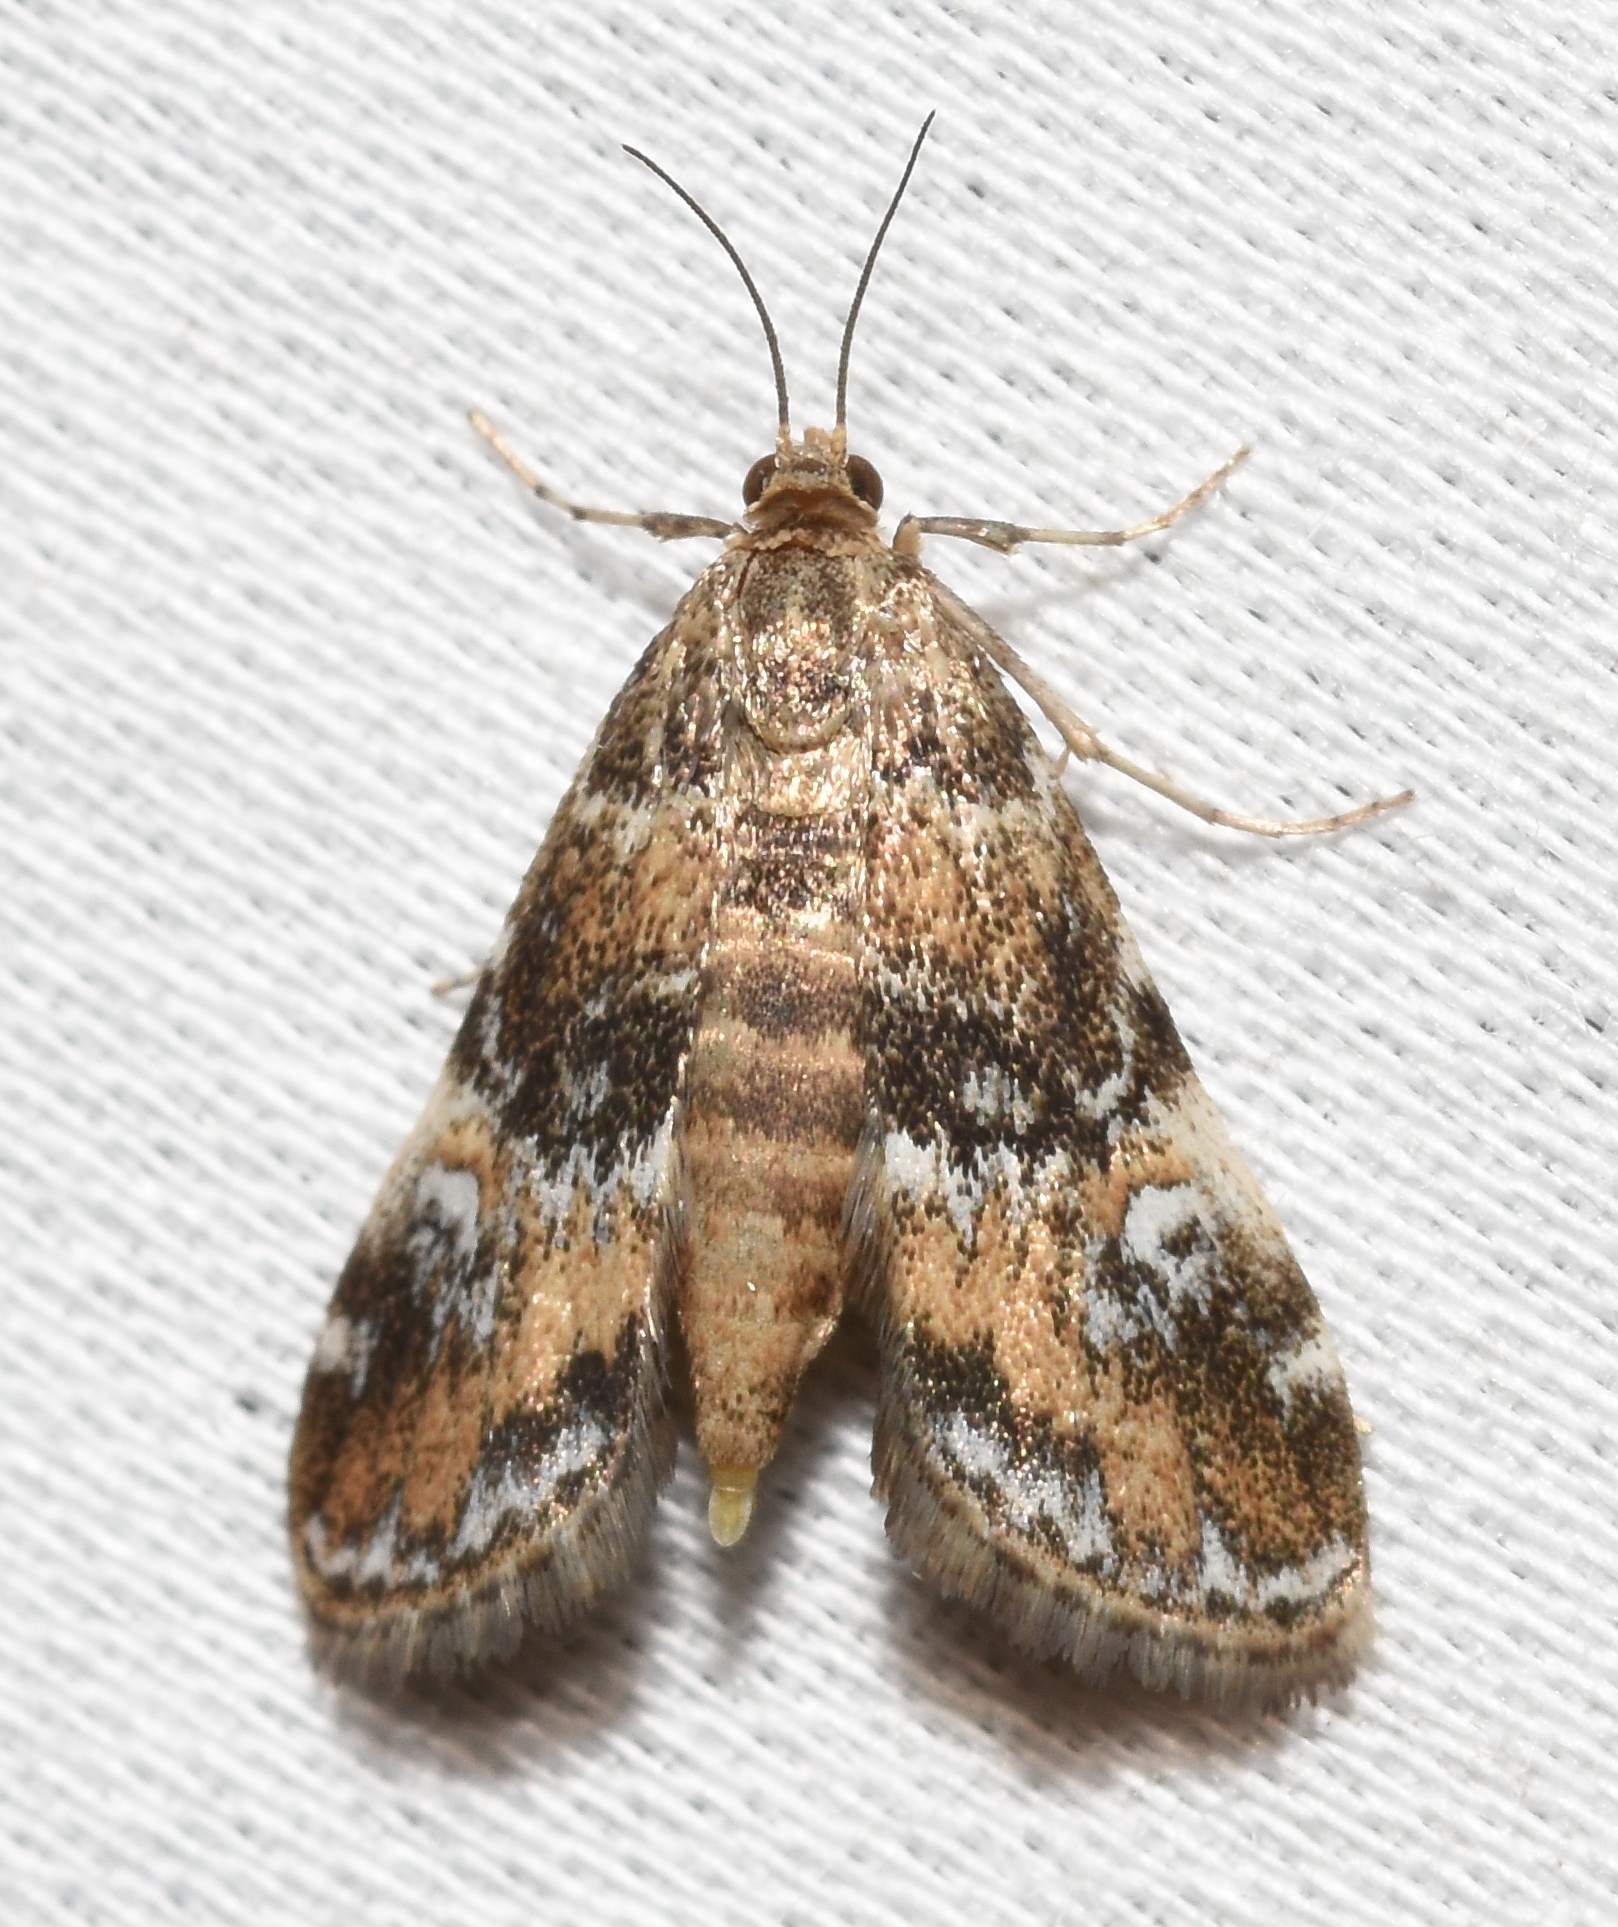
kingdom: Animalia
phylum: Arthropoda
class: Insecta
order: Lepidoptera
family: Crambidae
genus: Elophila
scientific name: Elophila obliteralis
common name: Waterlily leafcutter moth
